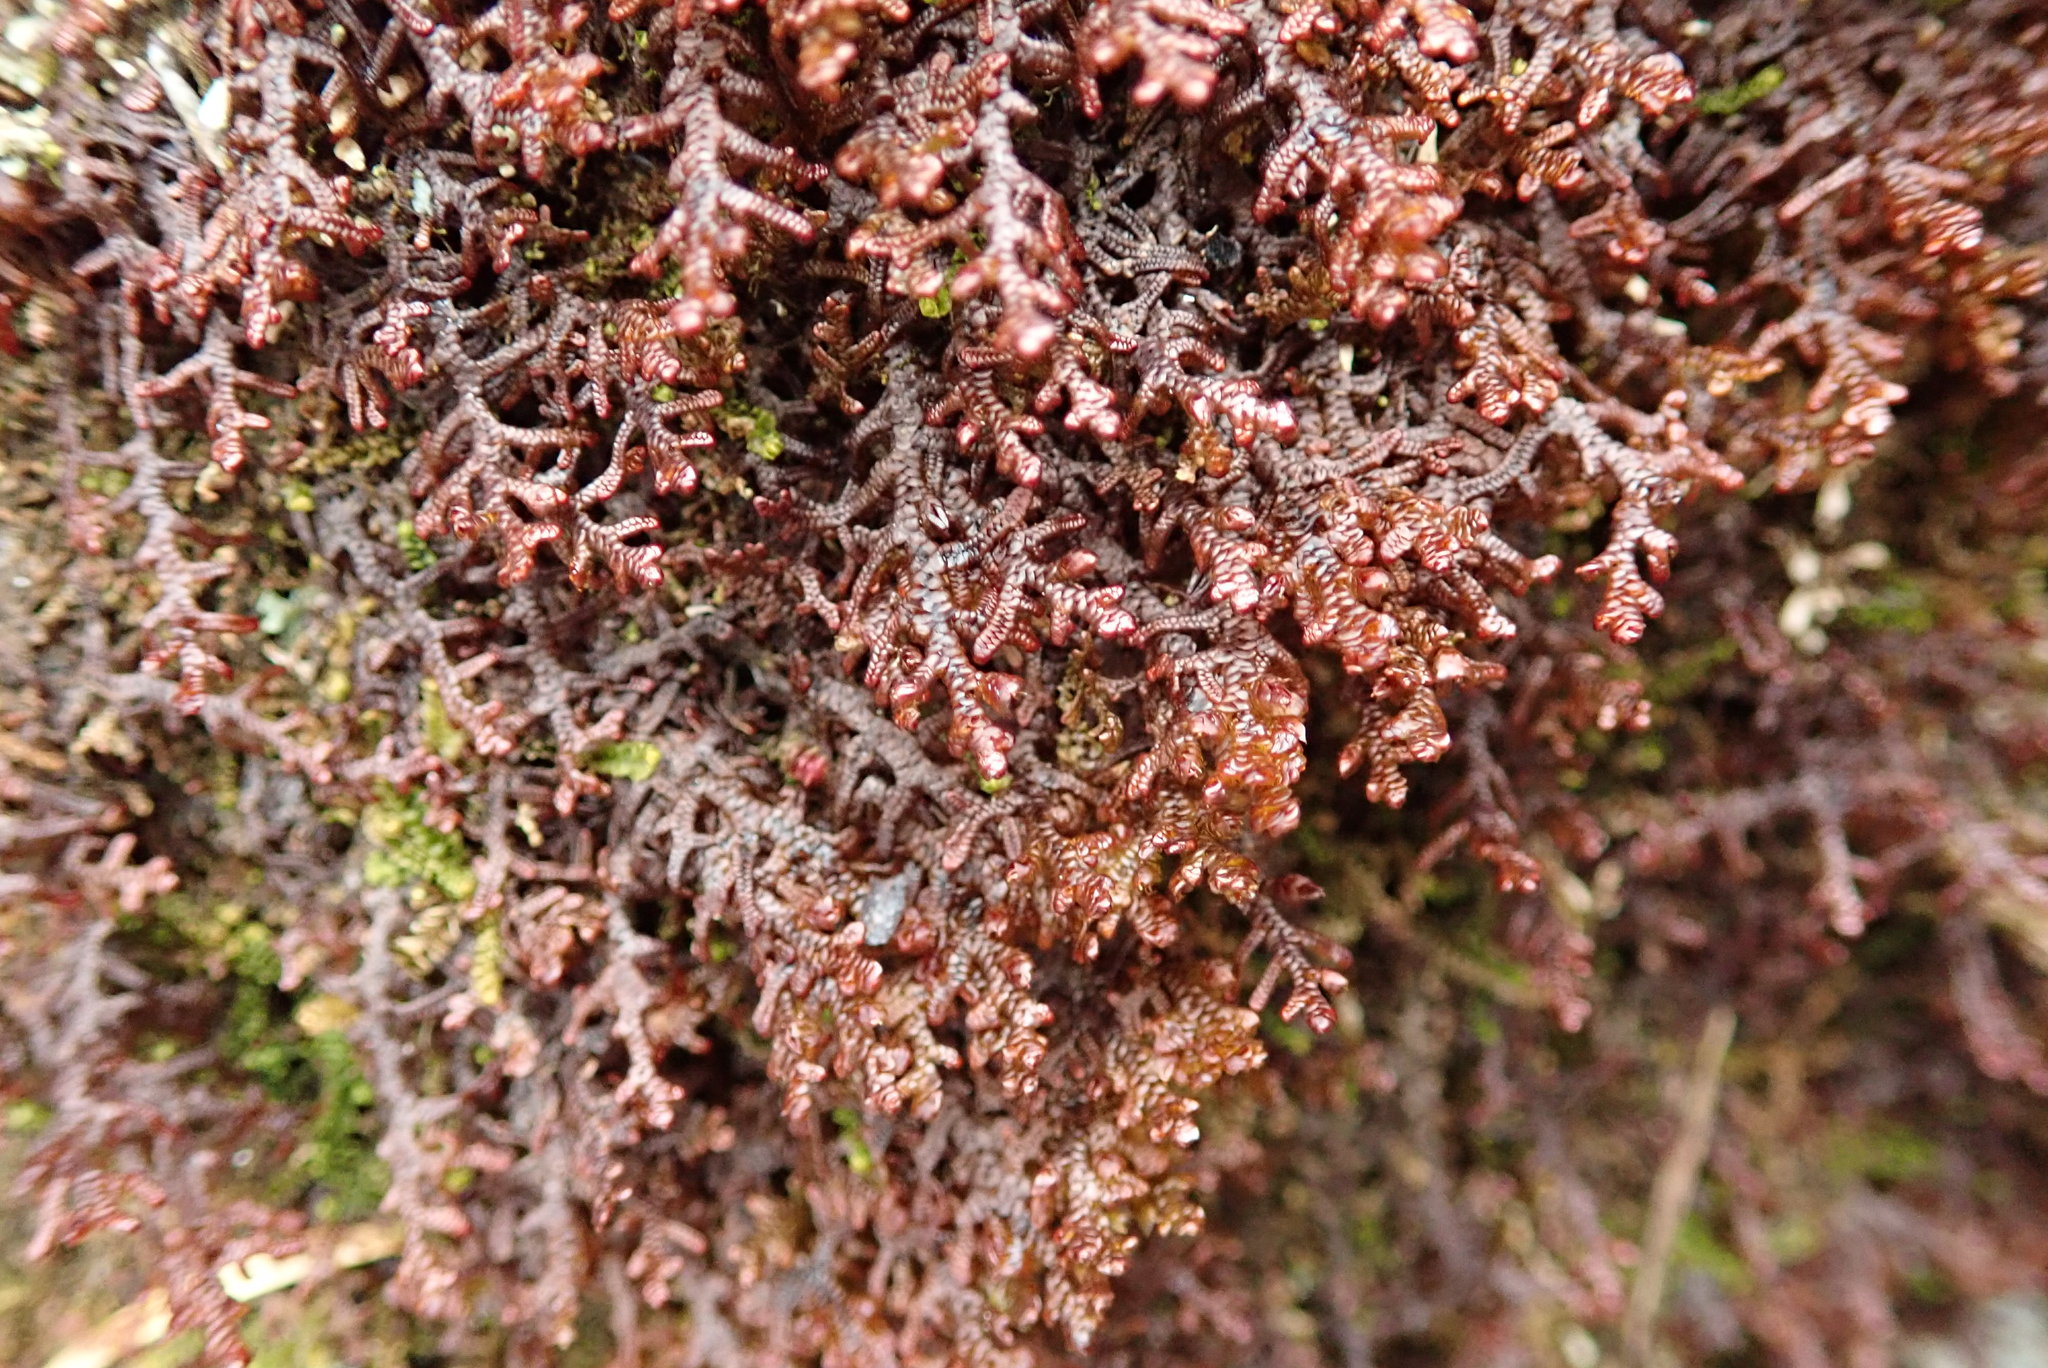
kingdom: Plantae
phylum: Marchantiophyta
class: Jungermanniopsida
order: Porellales
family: Frullaniaceae
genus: Frullania
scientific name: Frullania nisquallensis
